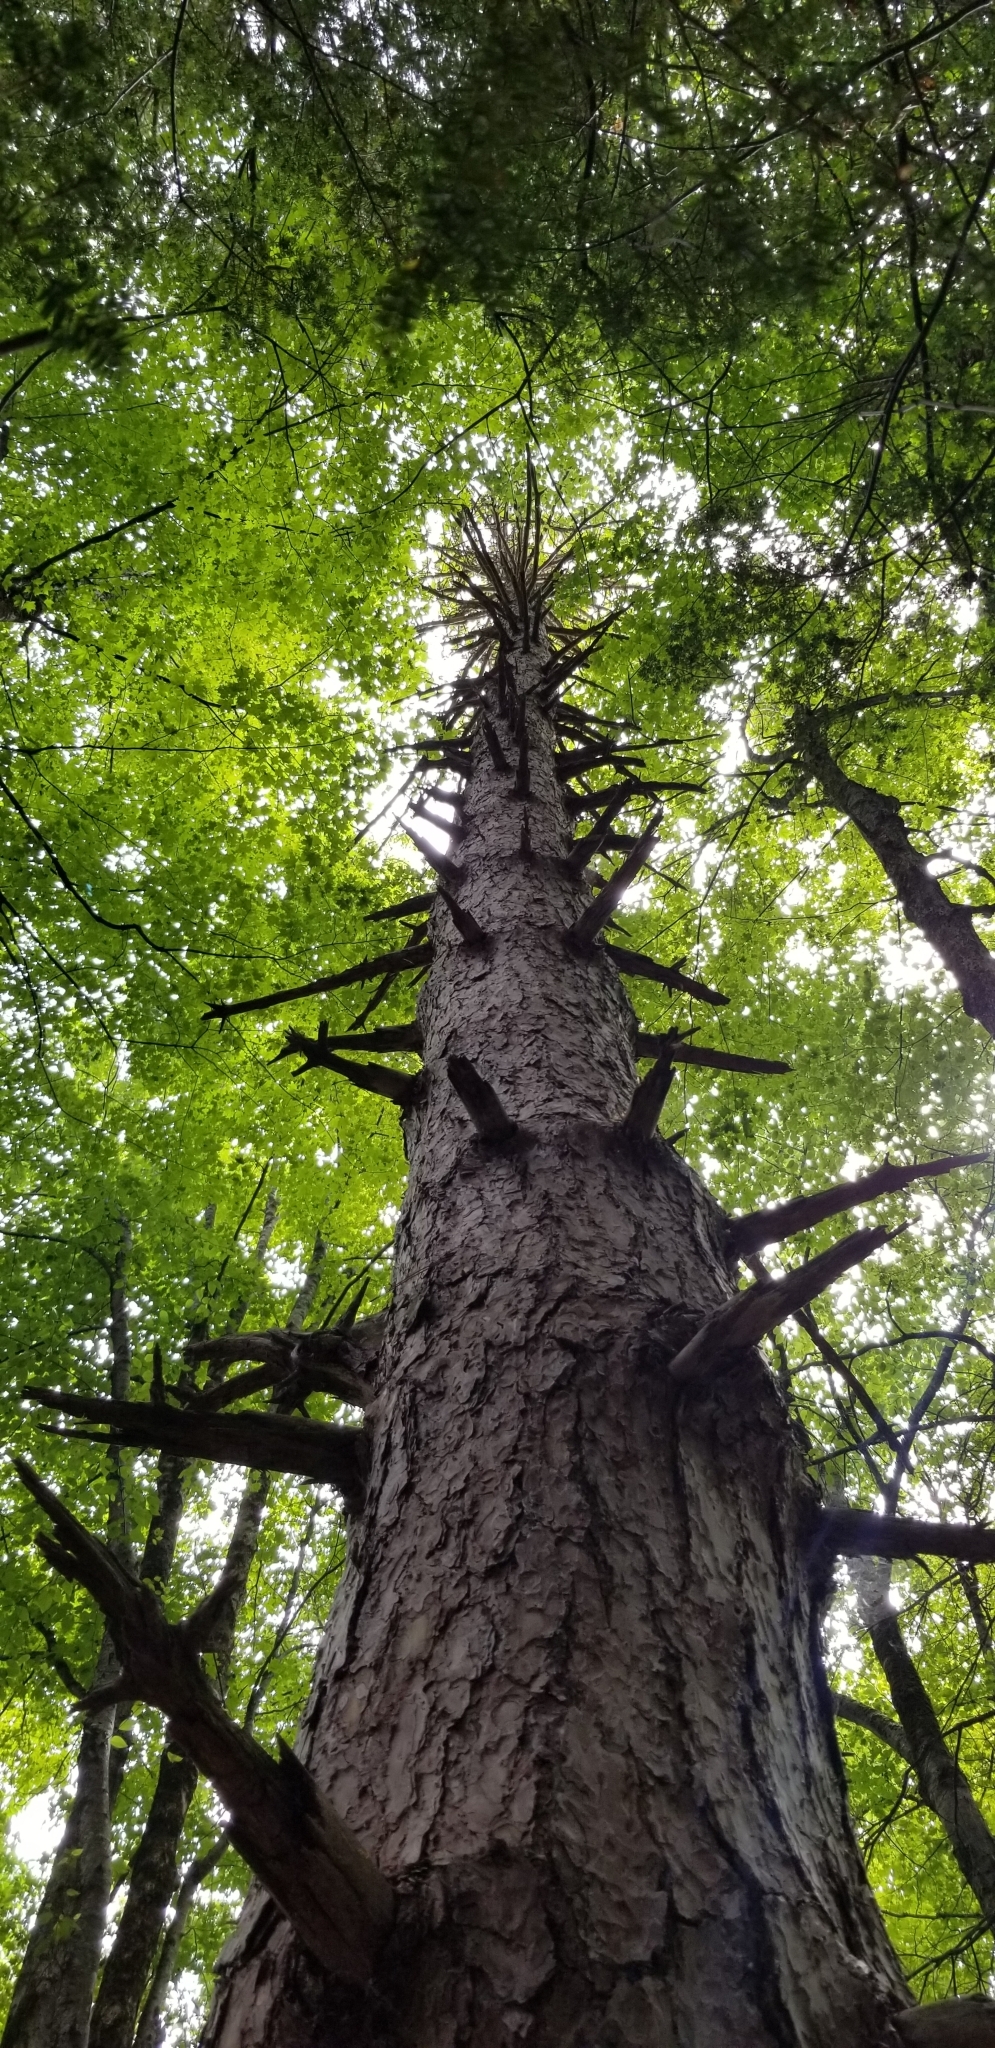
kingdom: Plantae
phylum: Tracheophyta
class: Pinopsida
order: Pinales
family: Pinaceae
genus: Pinus
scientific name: Pinus resinosa
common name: Norway pine
